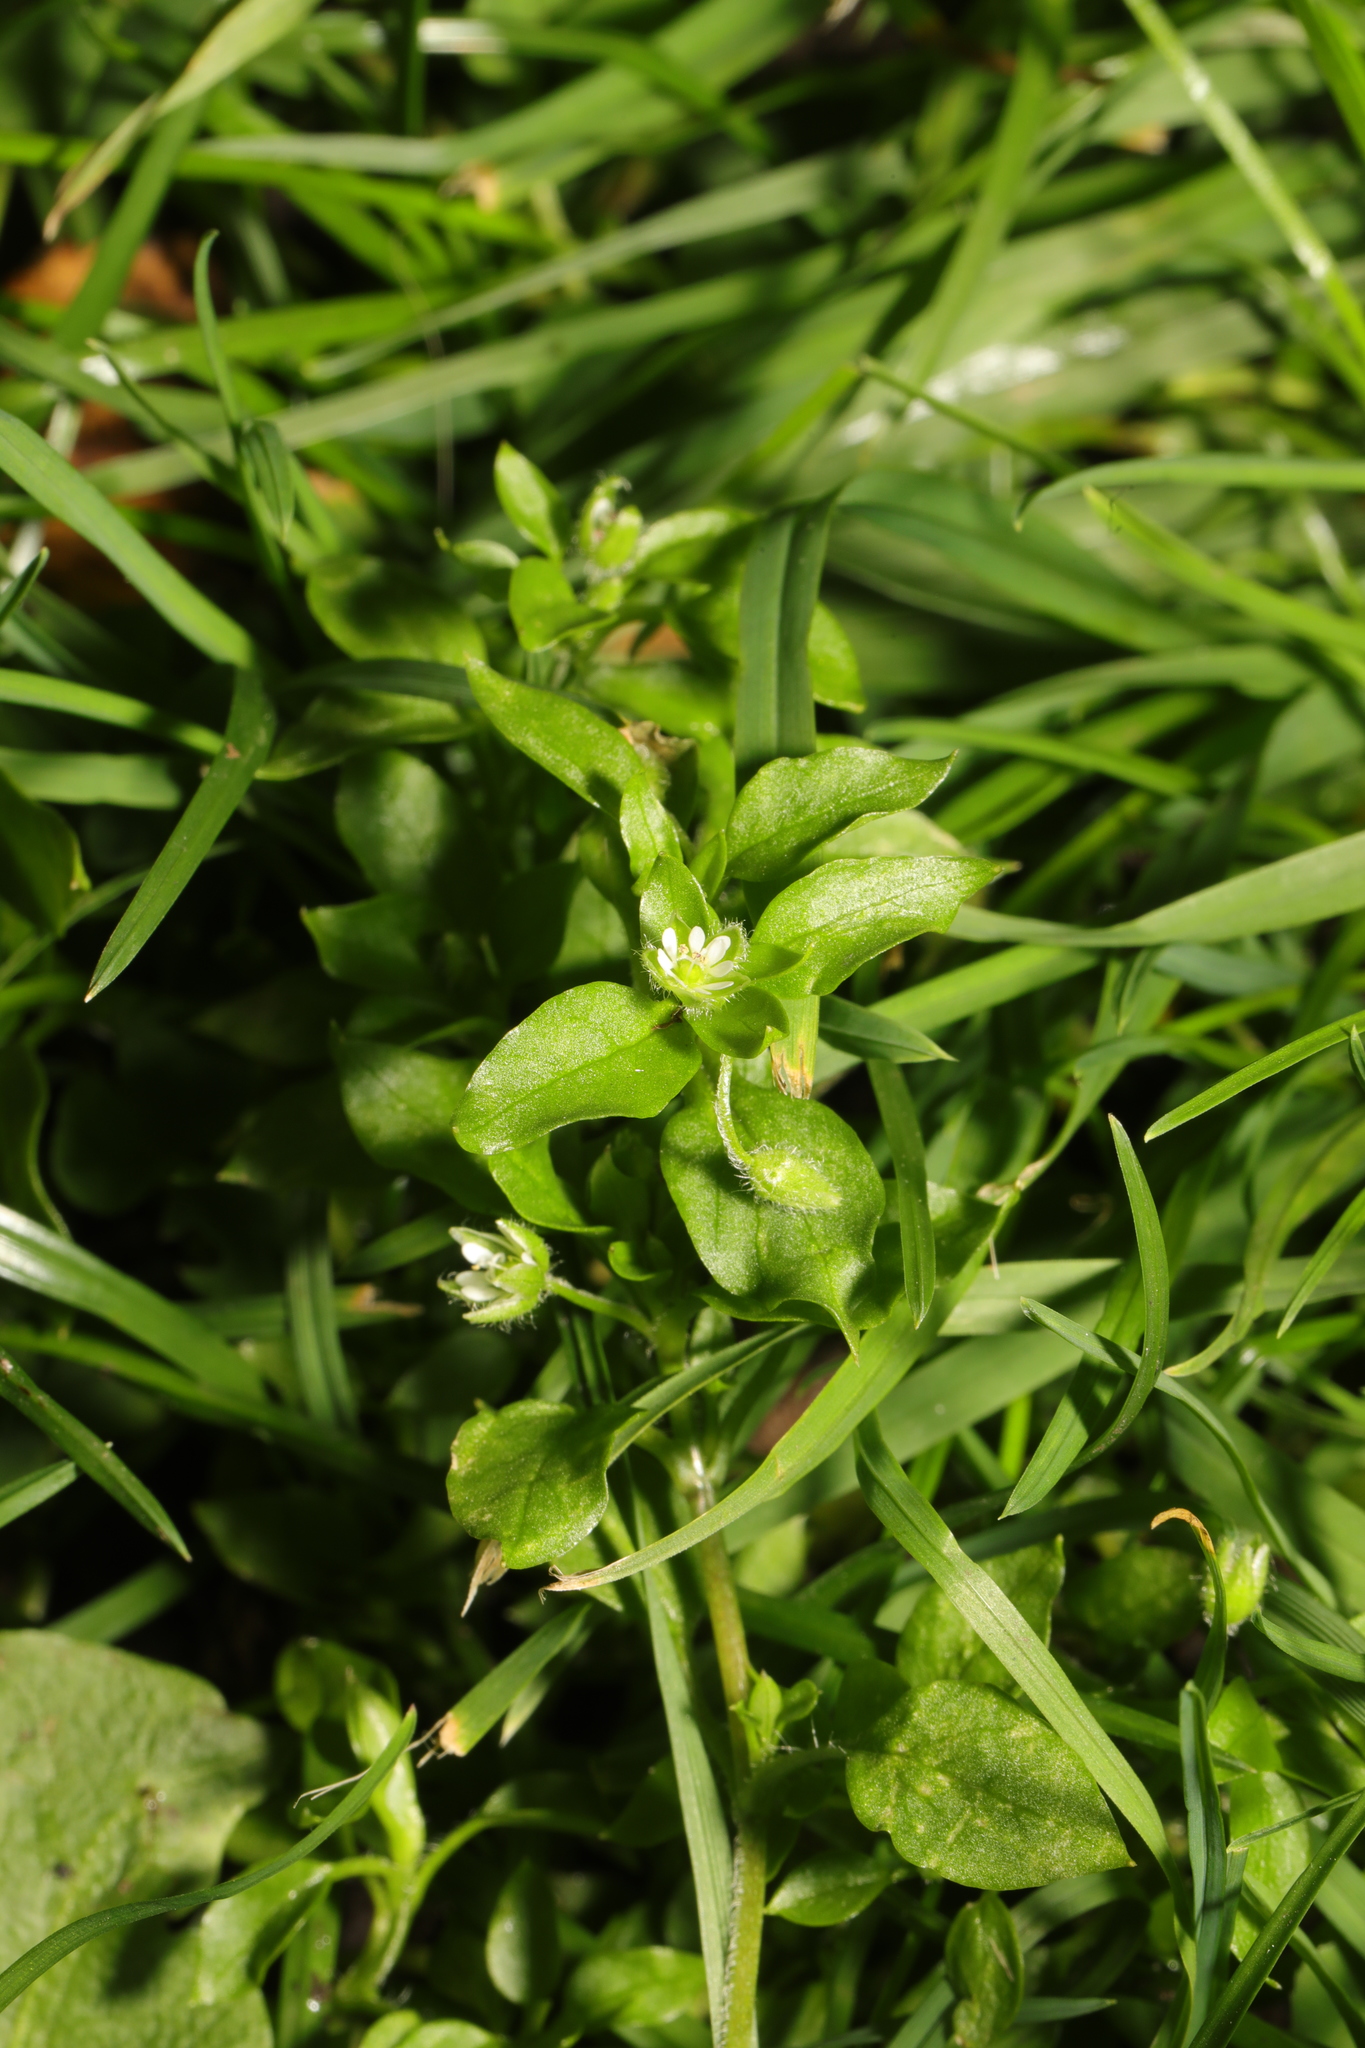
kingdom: Plantae
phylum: Tracheophyta
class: Magnoliopsida
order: Caryophyllales
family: Caryophyllaceae
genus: Stellaria
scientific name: Stellaria media
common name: Common chickweed
